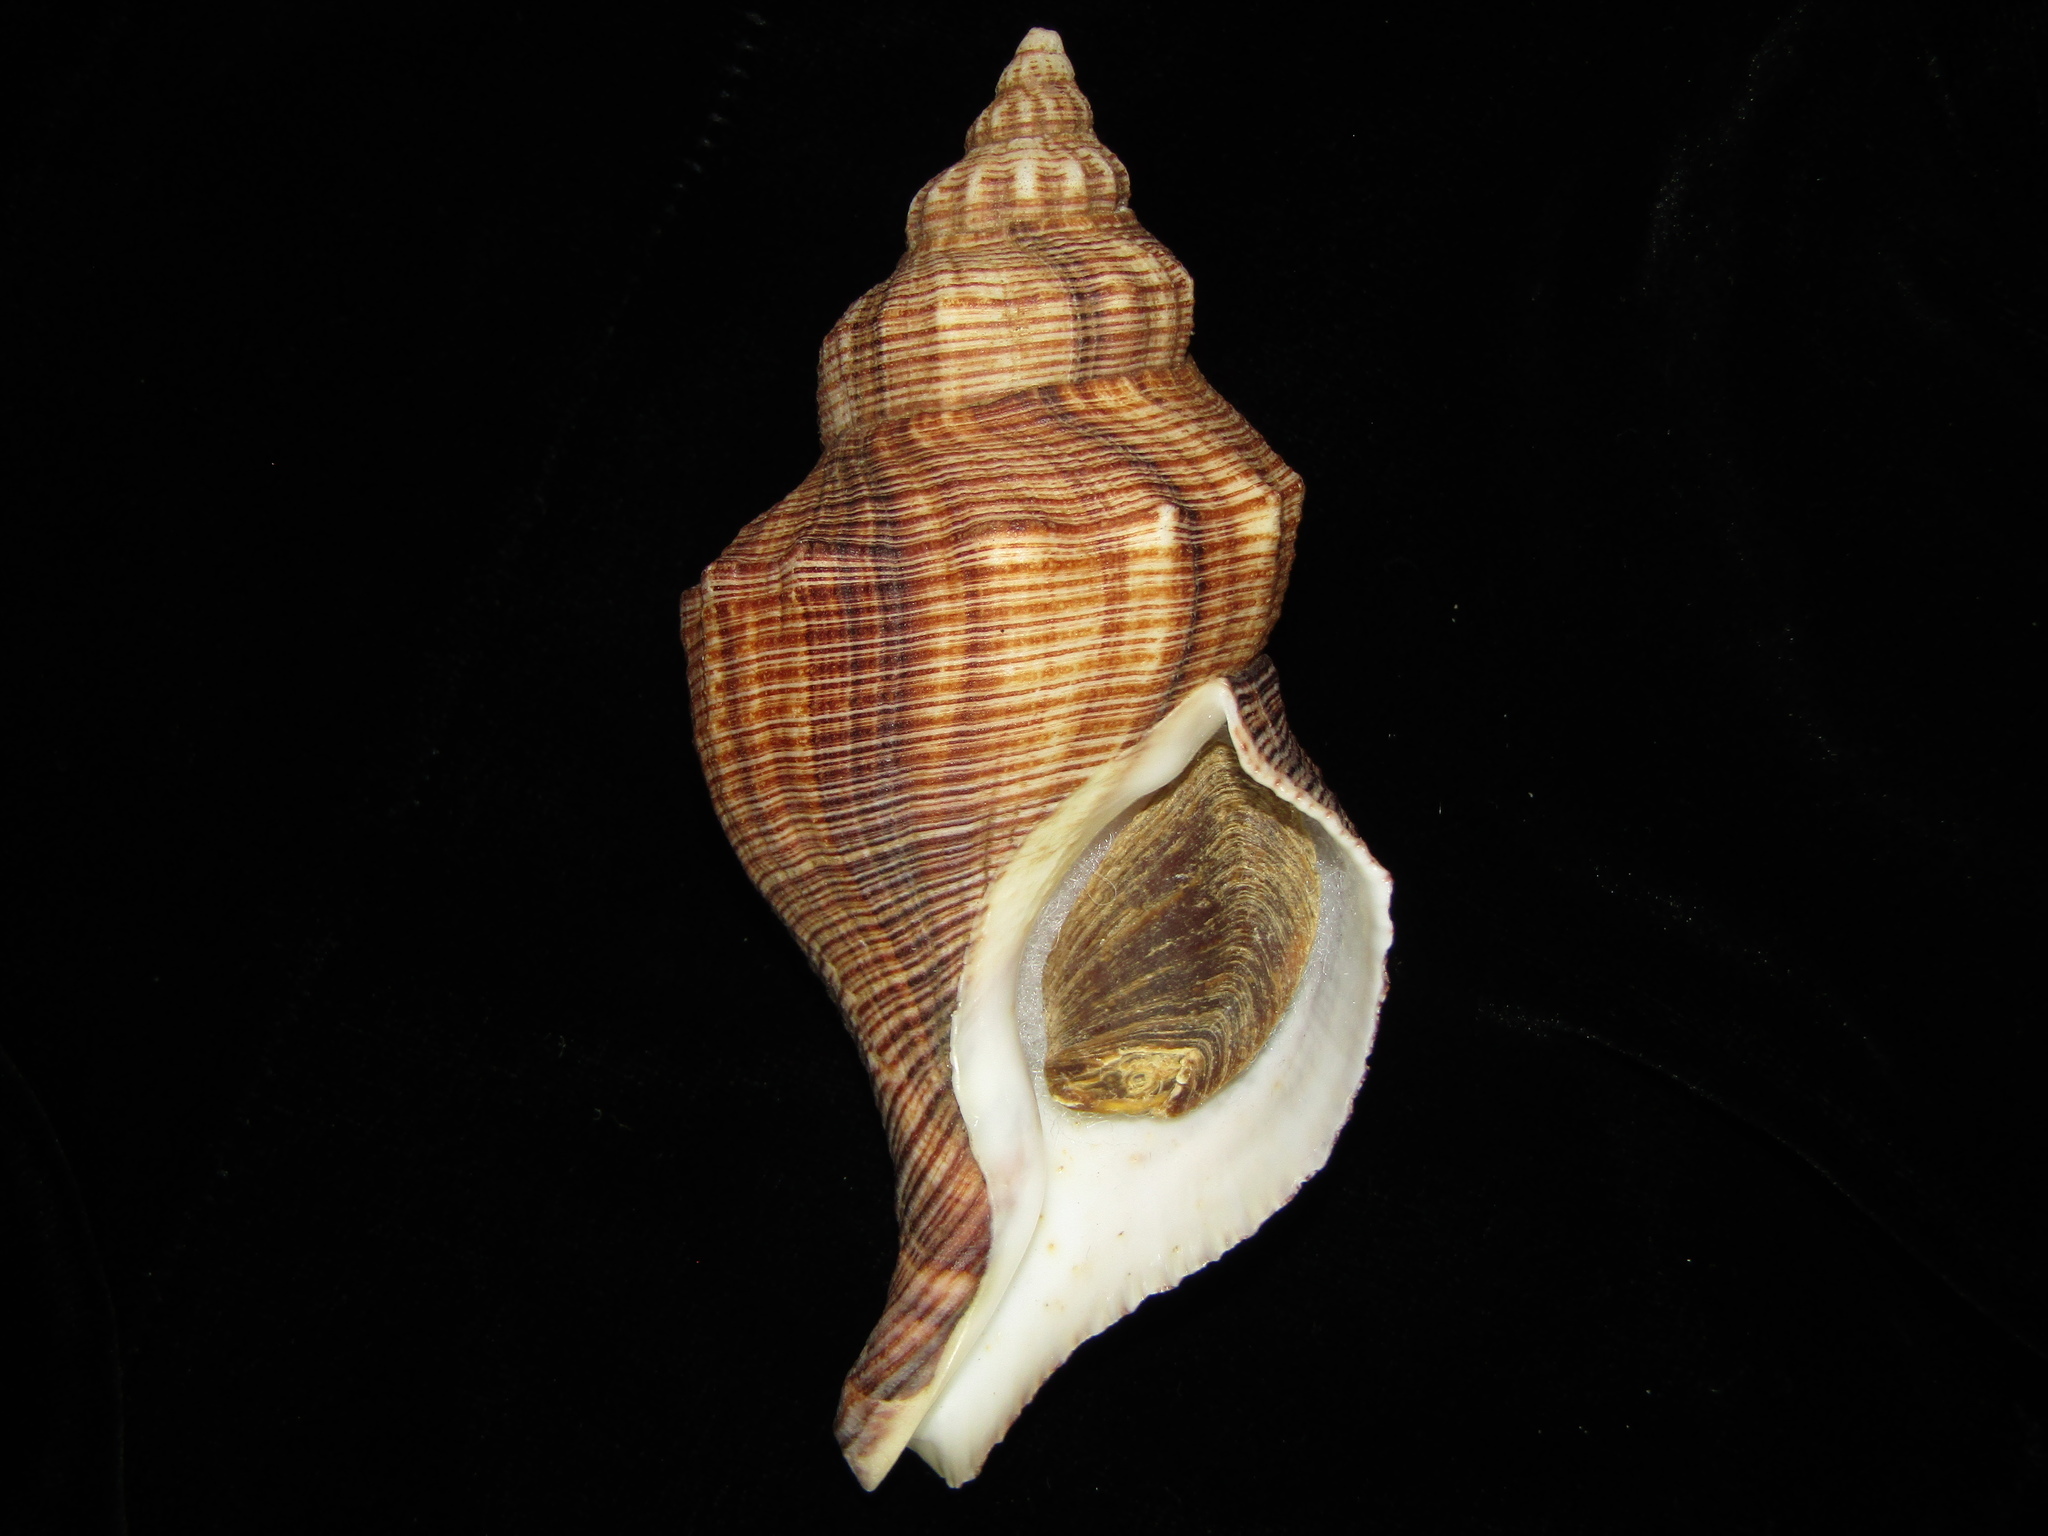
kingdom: Animalia
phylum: Mollusca
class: Gastropoda
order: Neogastropoda
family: Austrosiphonidae
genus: Penion
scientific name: Penion sulcatus
